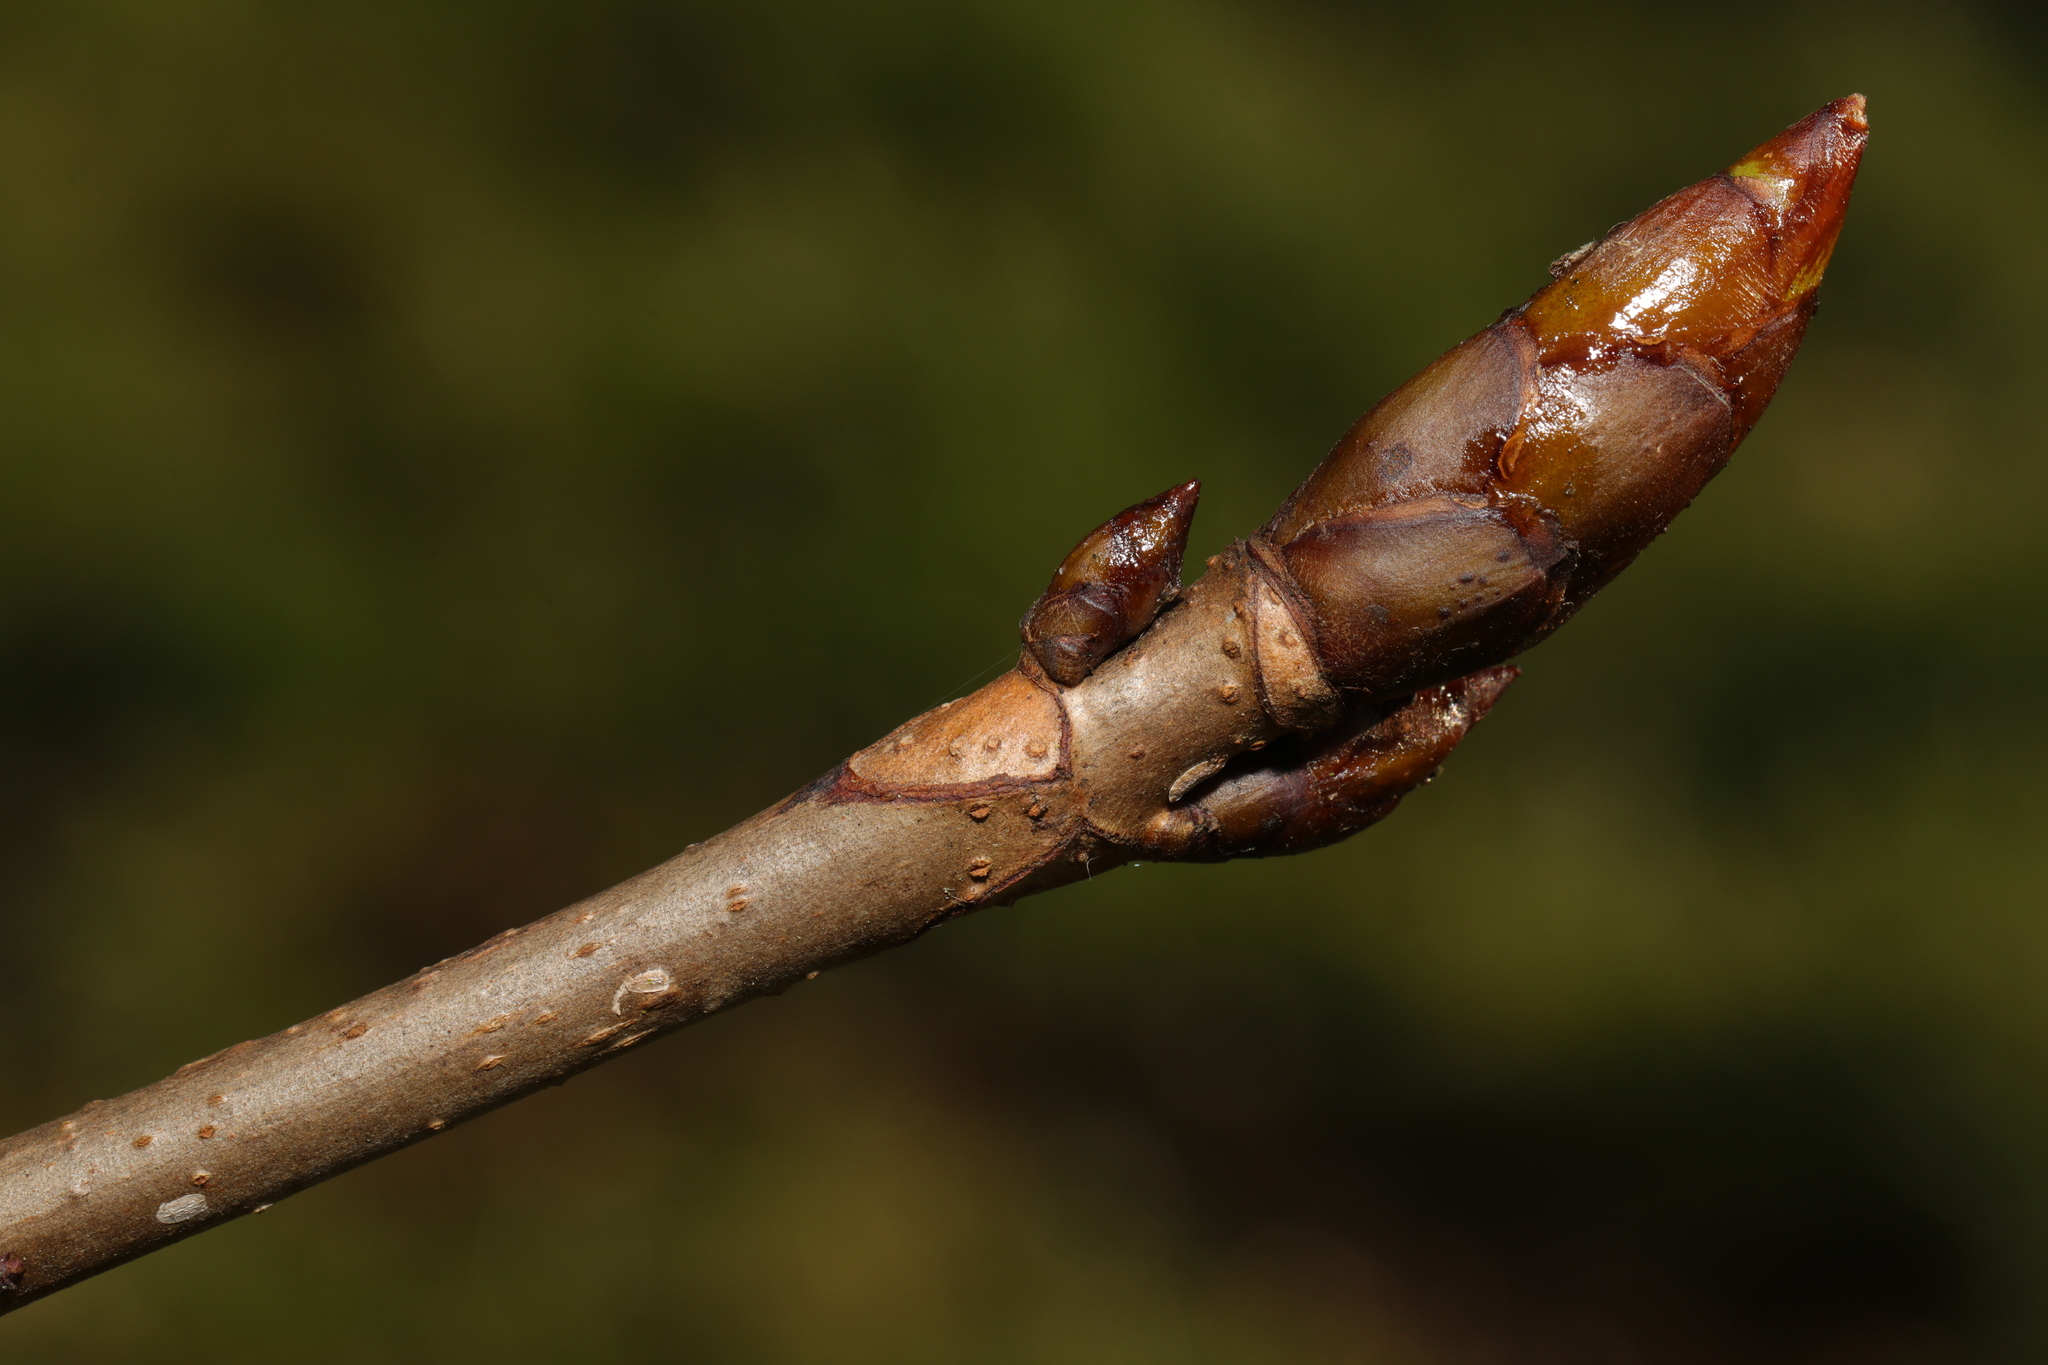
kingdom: Plantae
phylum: Tracheophyta
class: Magnoliopsida
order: Sapindales
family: Sapindaceae
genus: Aesculus
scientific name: Aesculus hippocastanum
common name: Horse-chestnut
